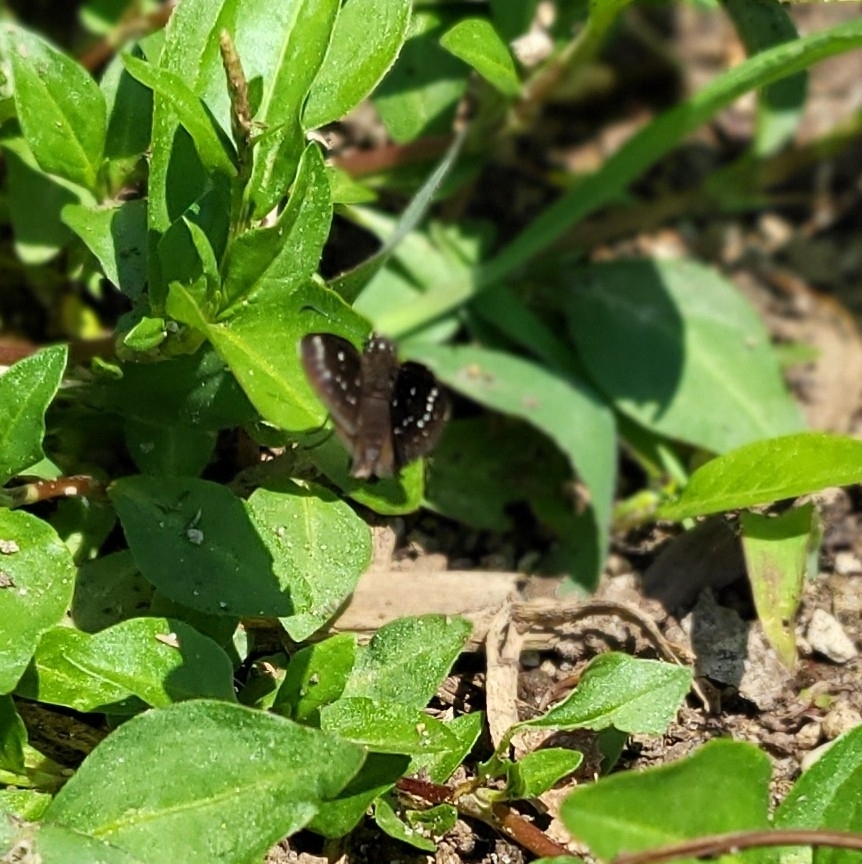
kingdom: Animalia
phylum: Arthropoda
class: Insecta
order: Lepidoptera
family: Hesperiidae
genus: Pholisora
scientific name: Pholisora catullus
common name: Common sootywing
